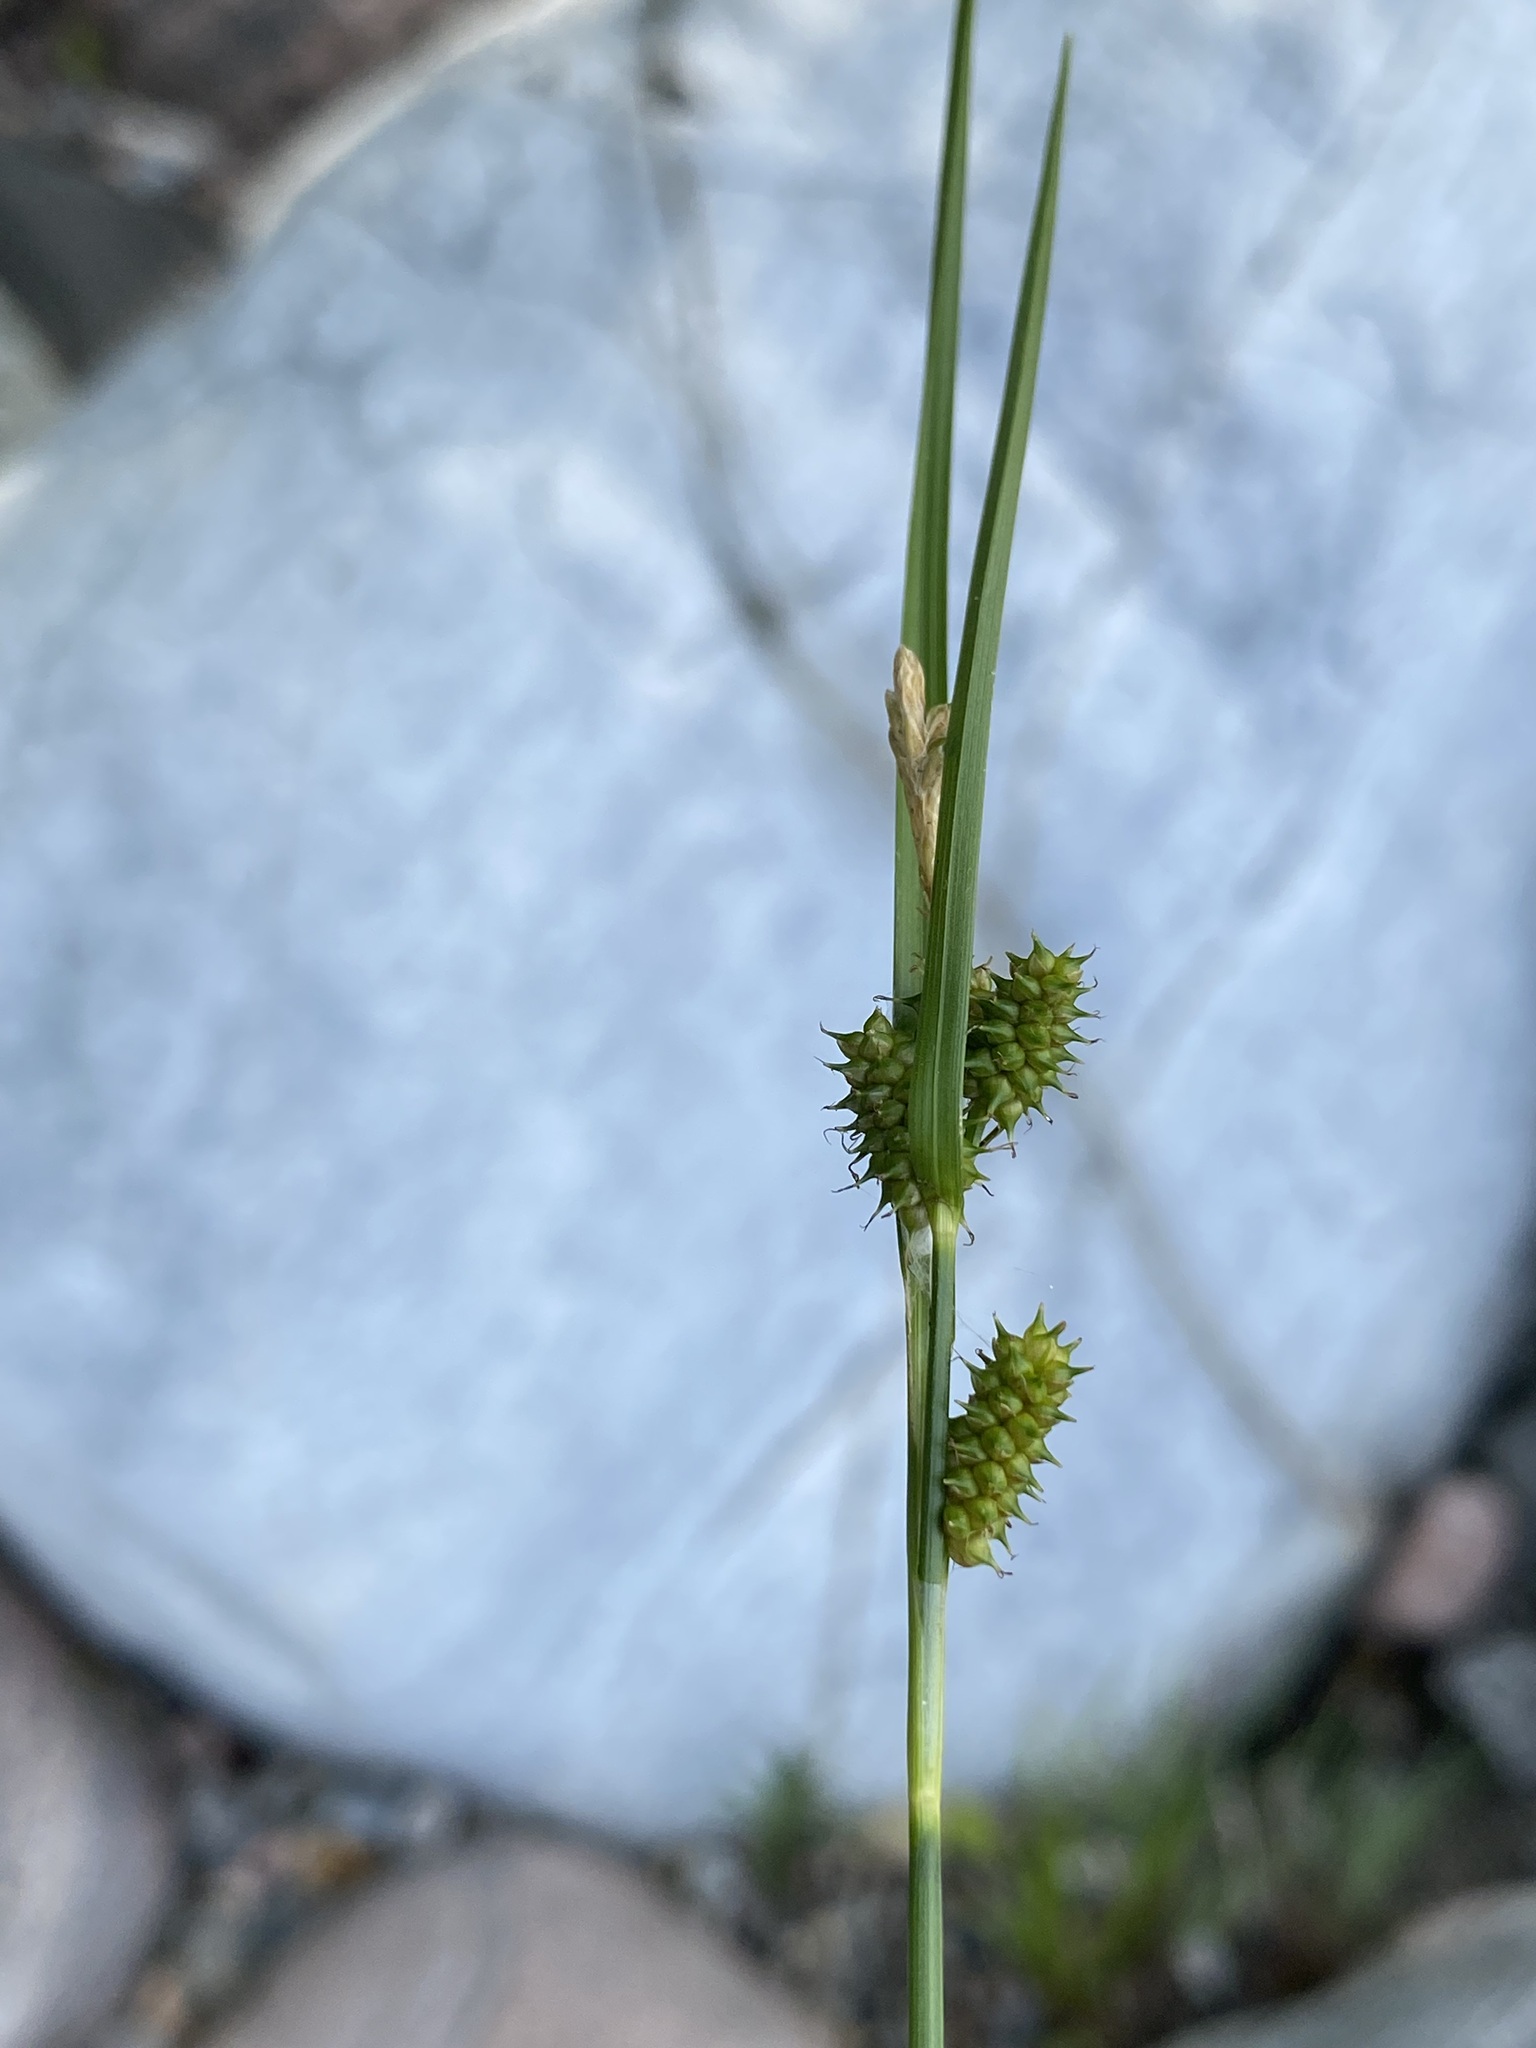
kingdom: Plantae
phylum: Tracheophyta
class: Liliopsida
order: Poales
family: Cyperaceae
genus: Carex
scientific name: Carex
